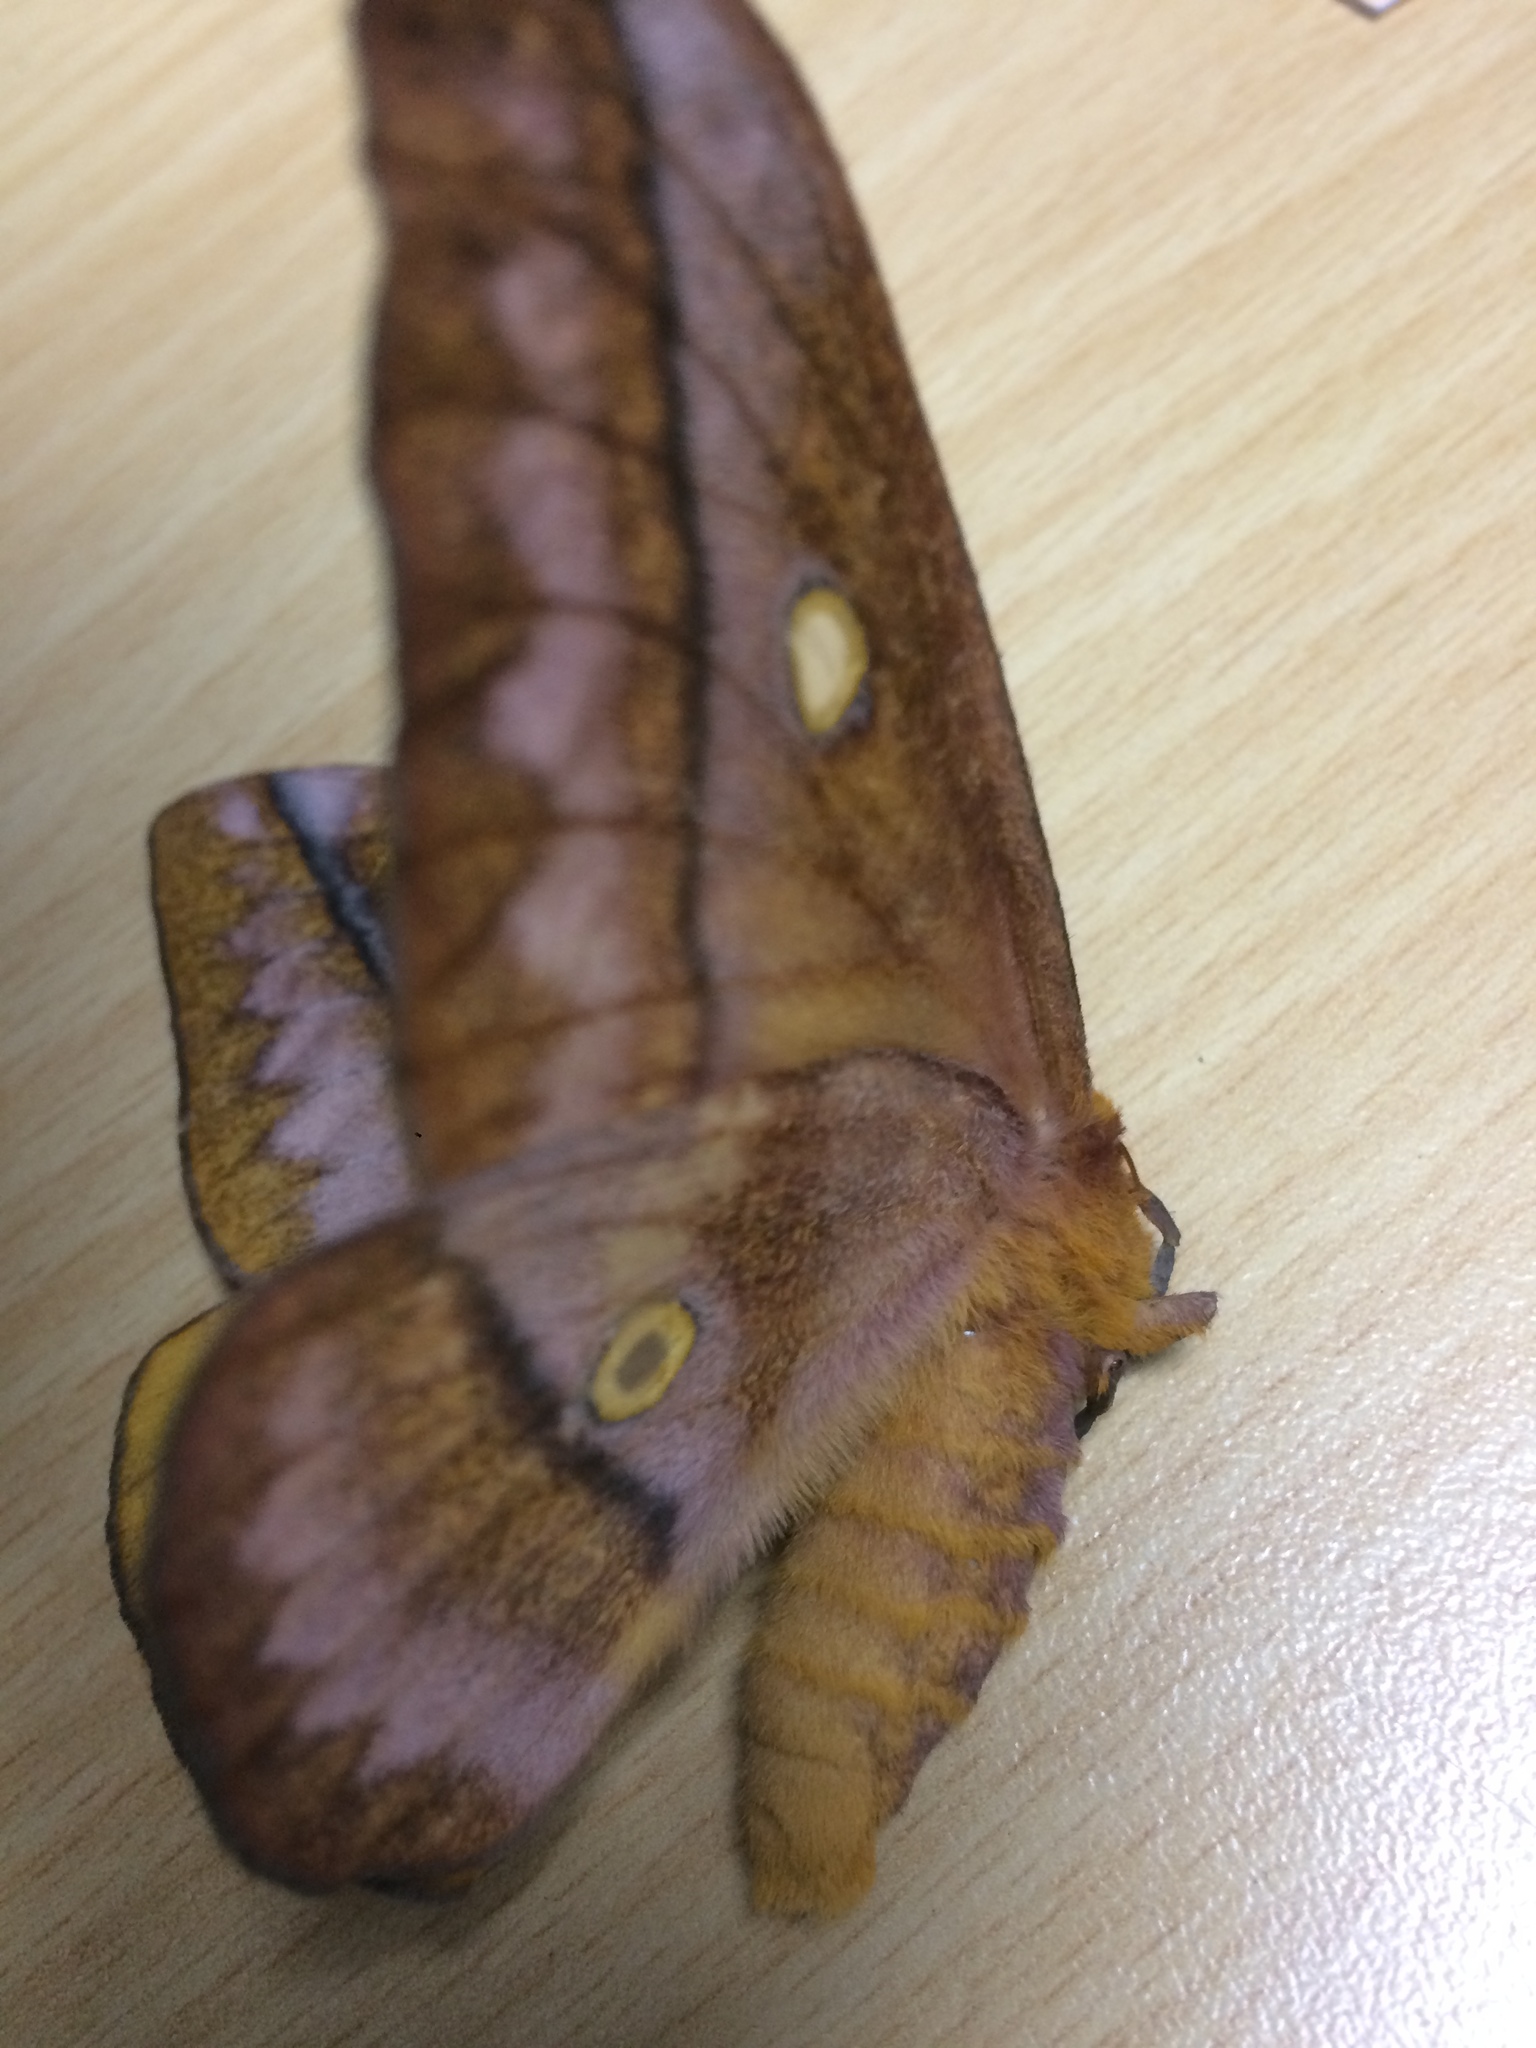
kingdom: Animalia
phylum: Arthropoda
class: Insecta
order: Lepidoptera
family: Saturniidae
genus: Nudaurelia
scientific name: Nudaurelia wahlbergi
